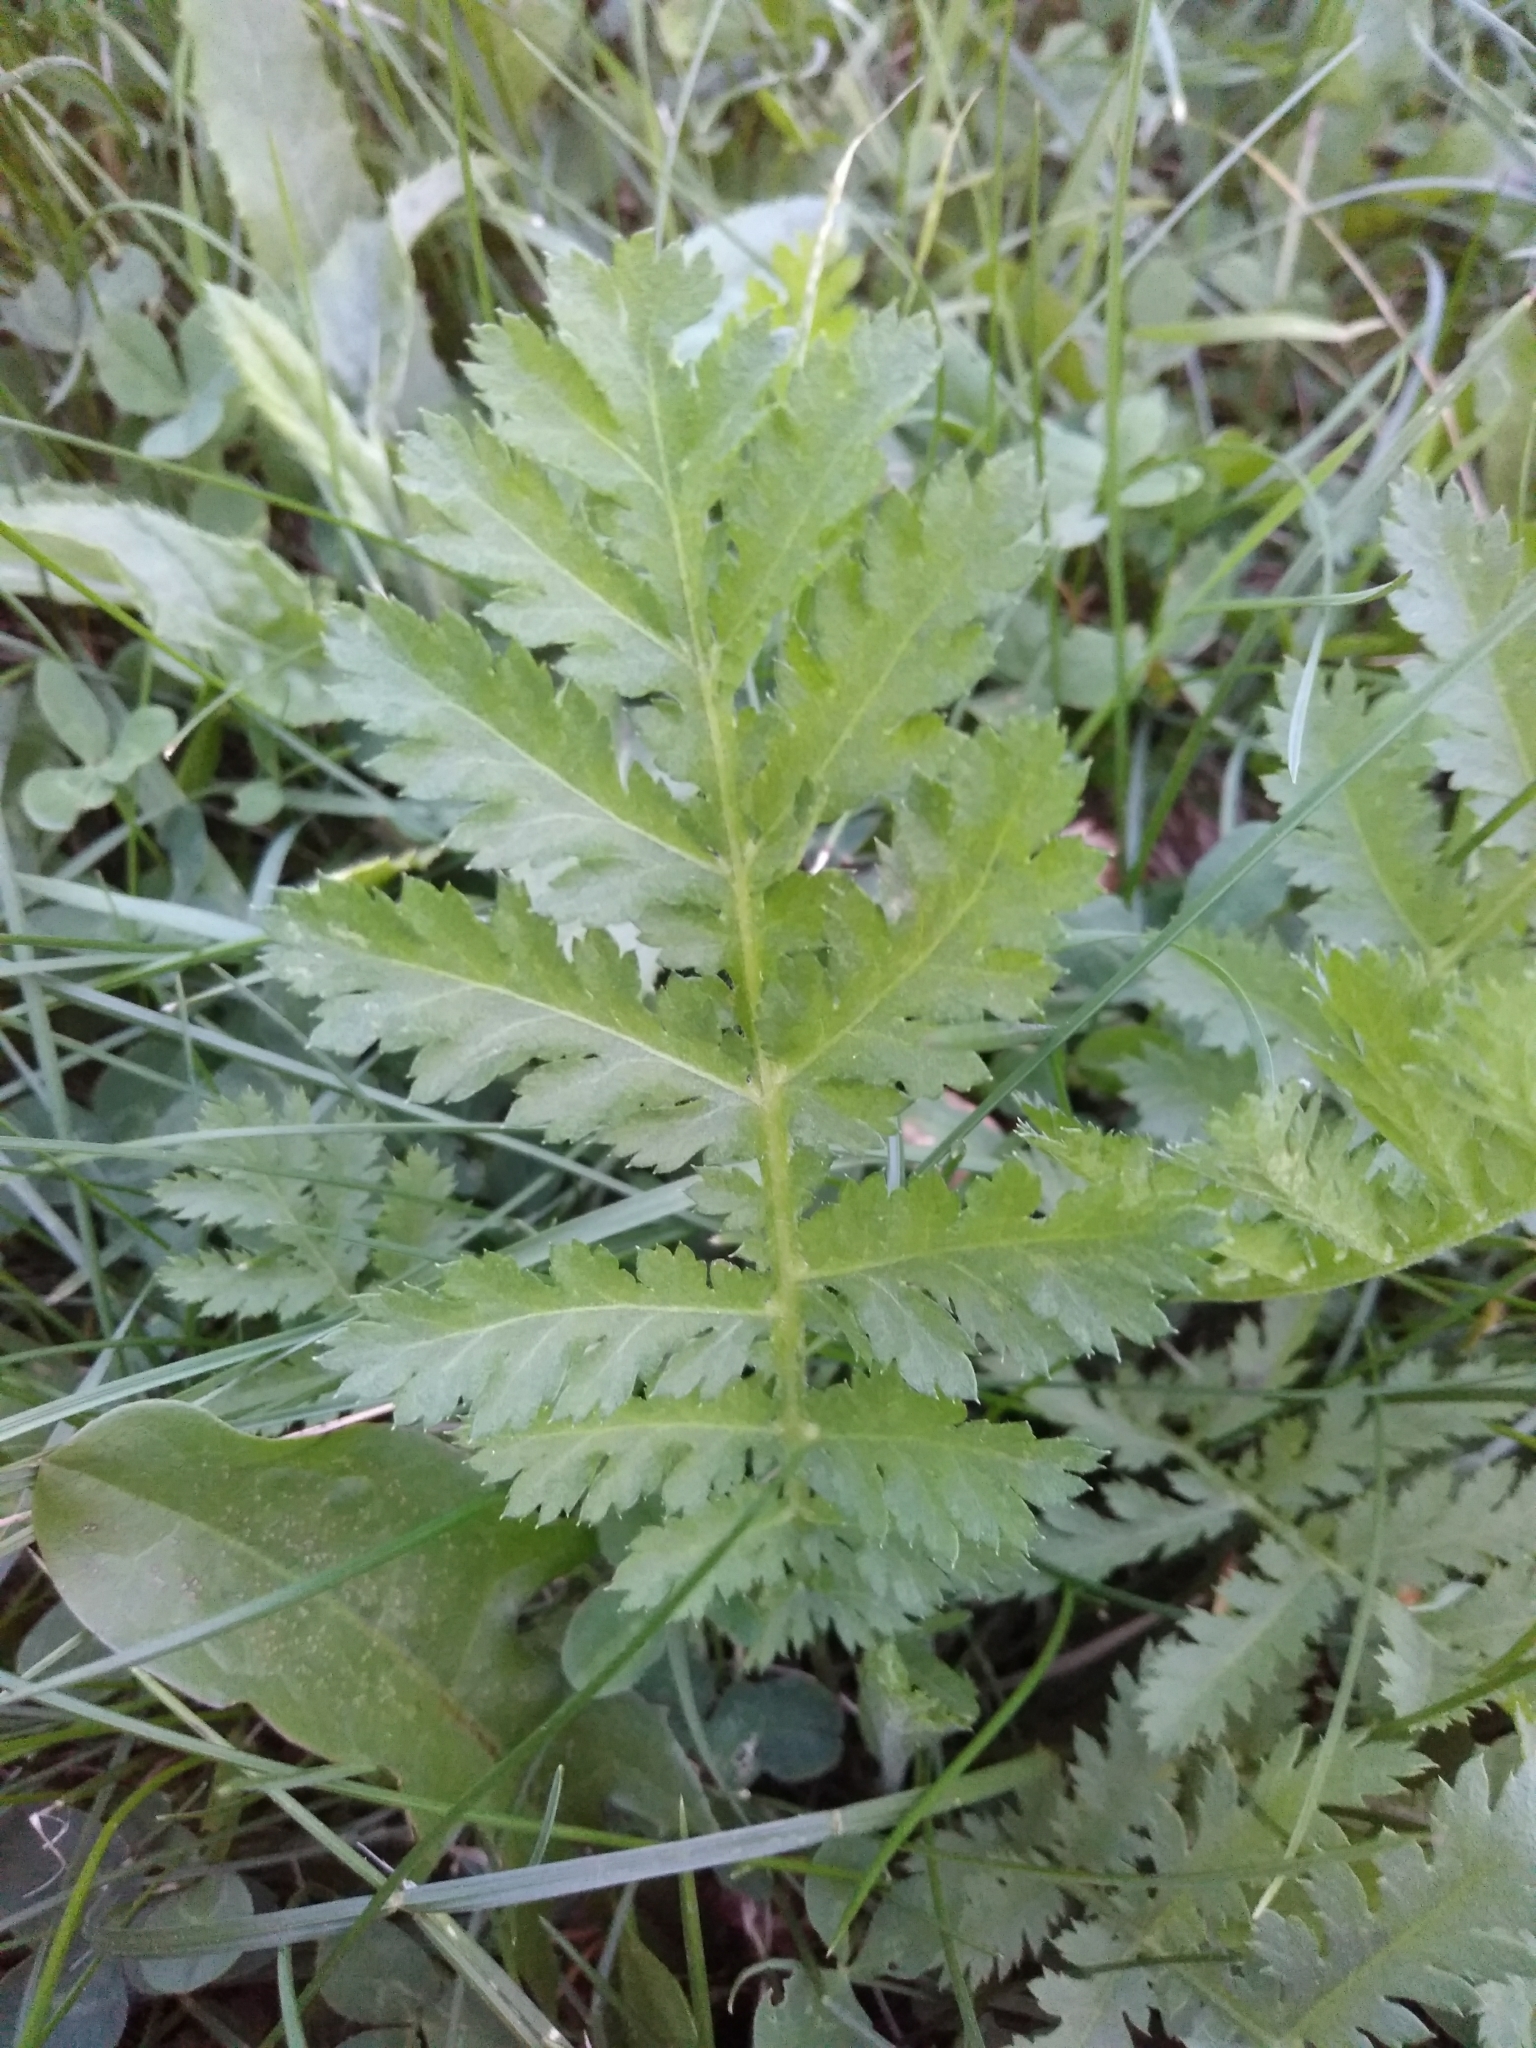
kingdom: Plantae
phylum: Tracheophyta
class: Magnoliopsida
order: Asterales
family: Asteraceae
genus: Tanacetum
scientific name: Tanacetum vulgare
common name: Common tansy
